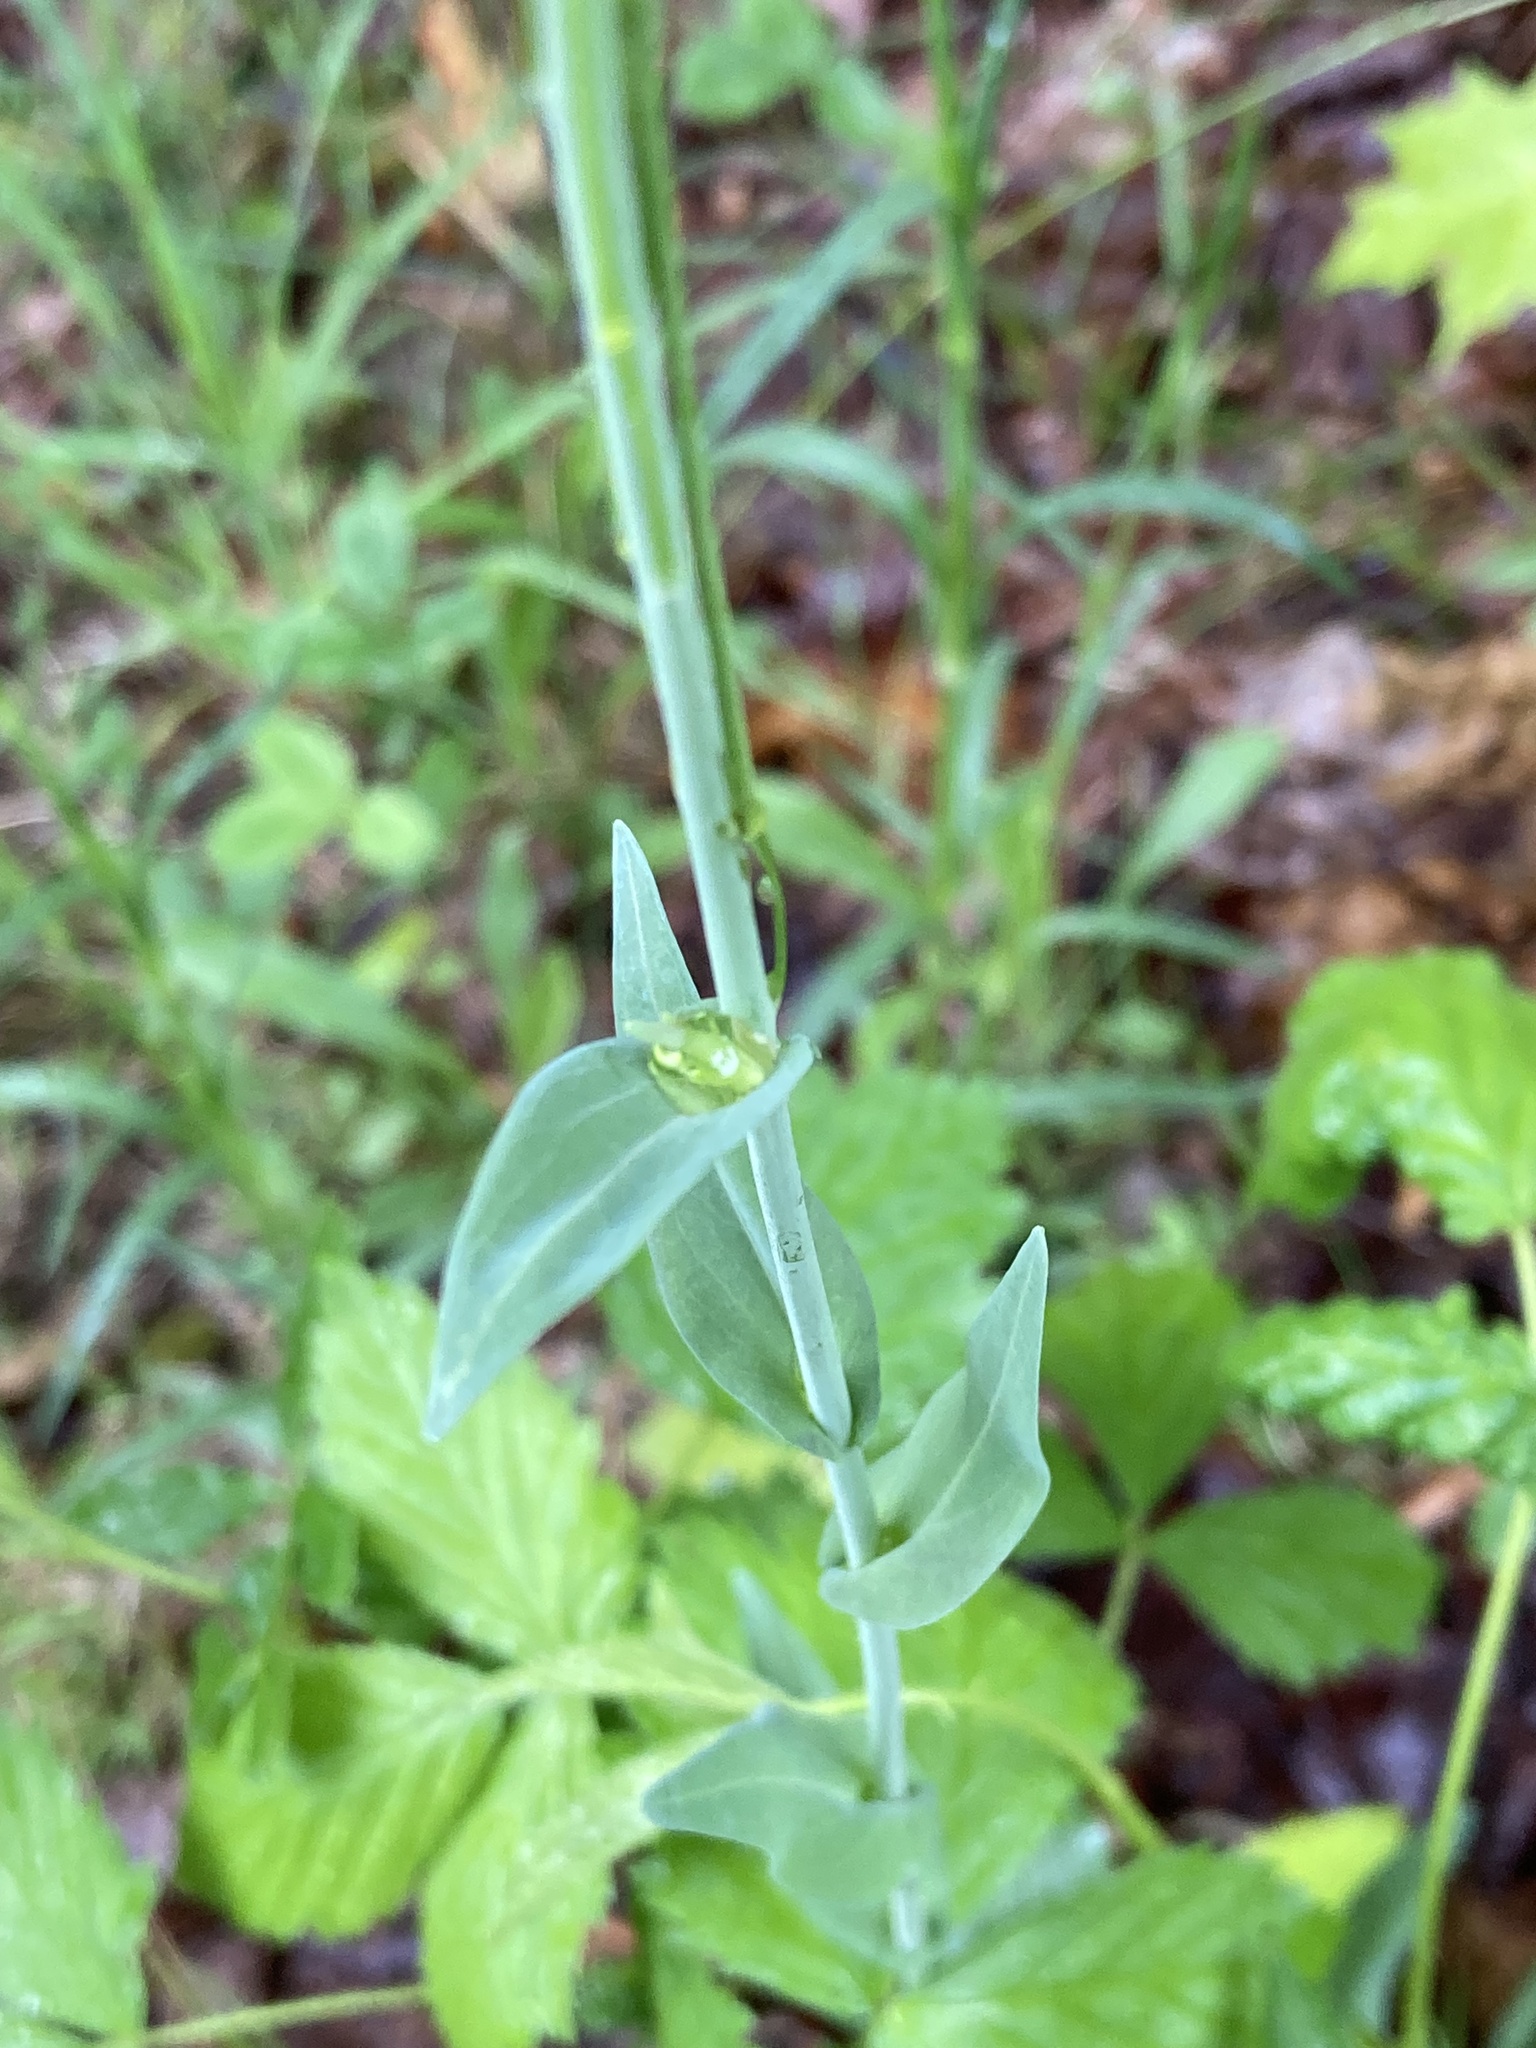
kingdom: Plantae
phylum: Tracheophyta
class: Magnoliopsida
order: Brassicales
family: Brassicaceae
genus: Turritis
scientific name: Turritis glabra
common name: Tower rockcress
